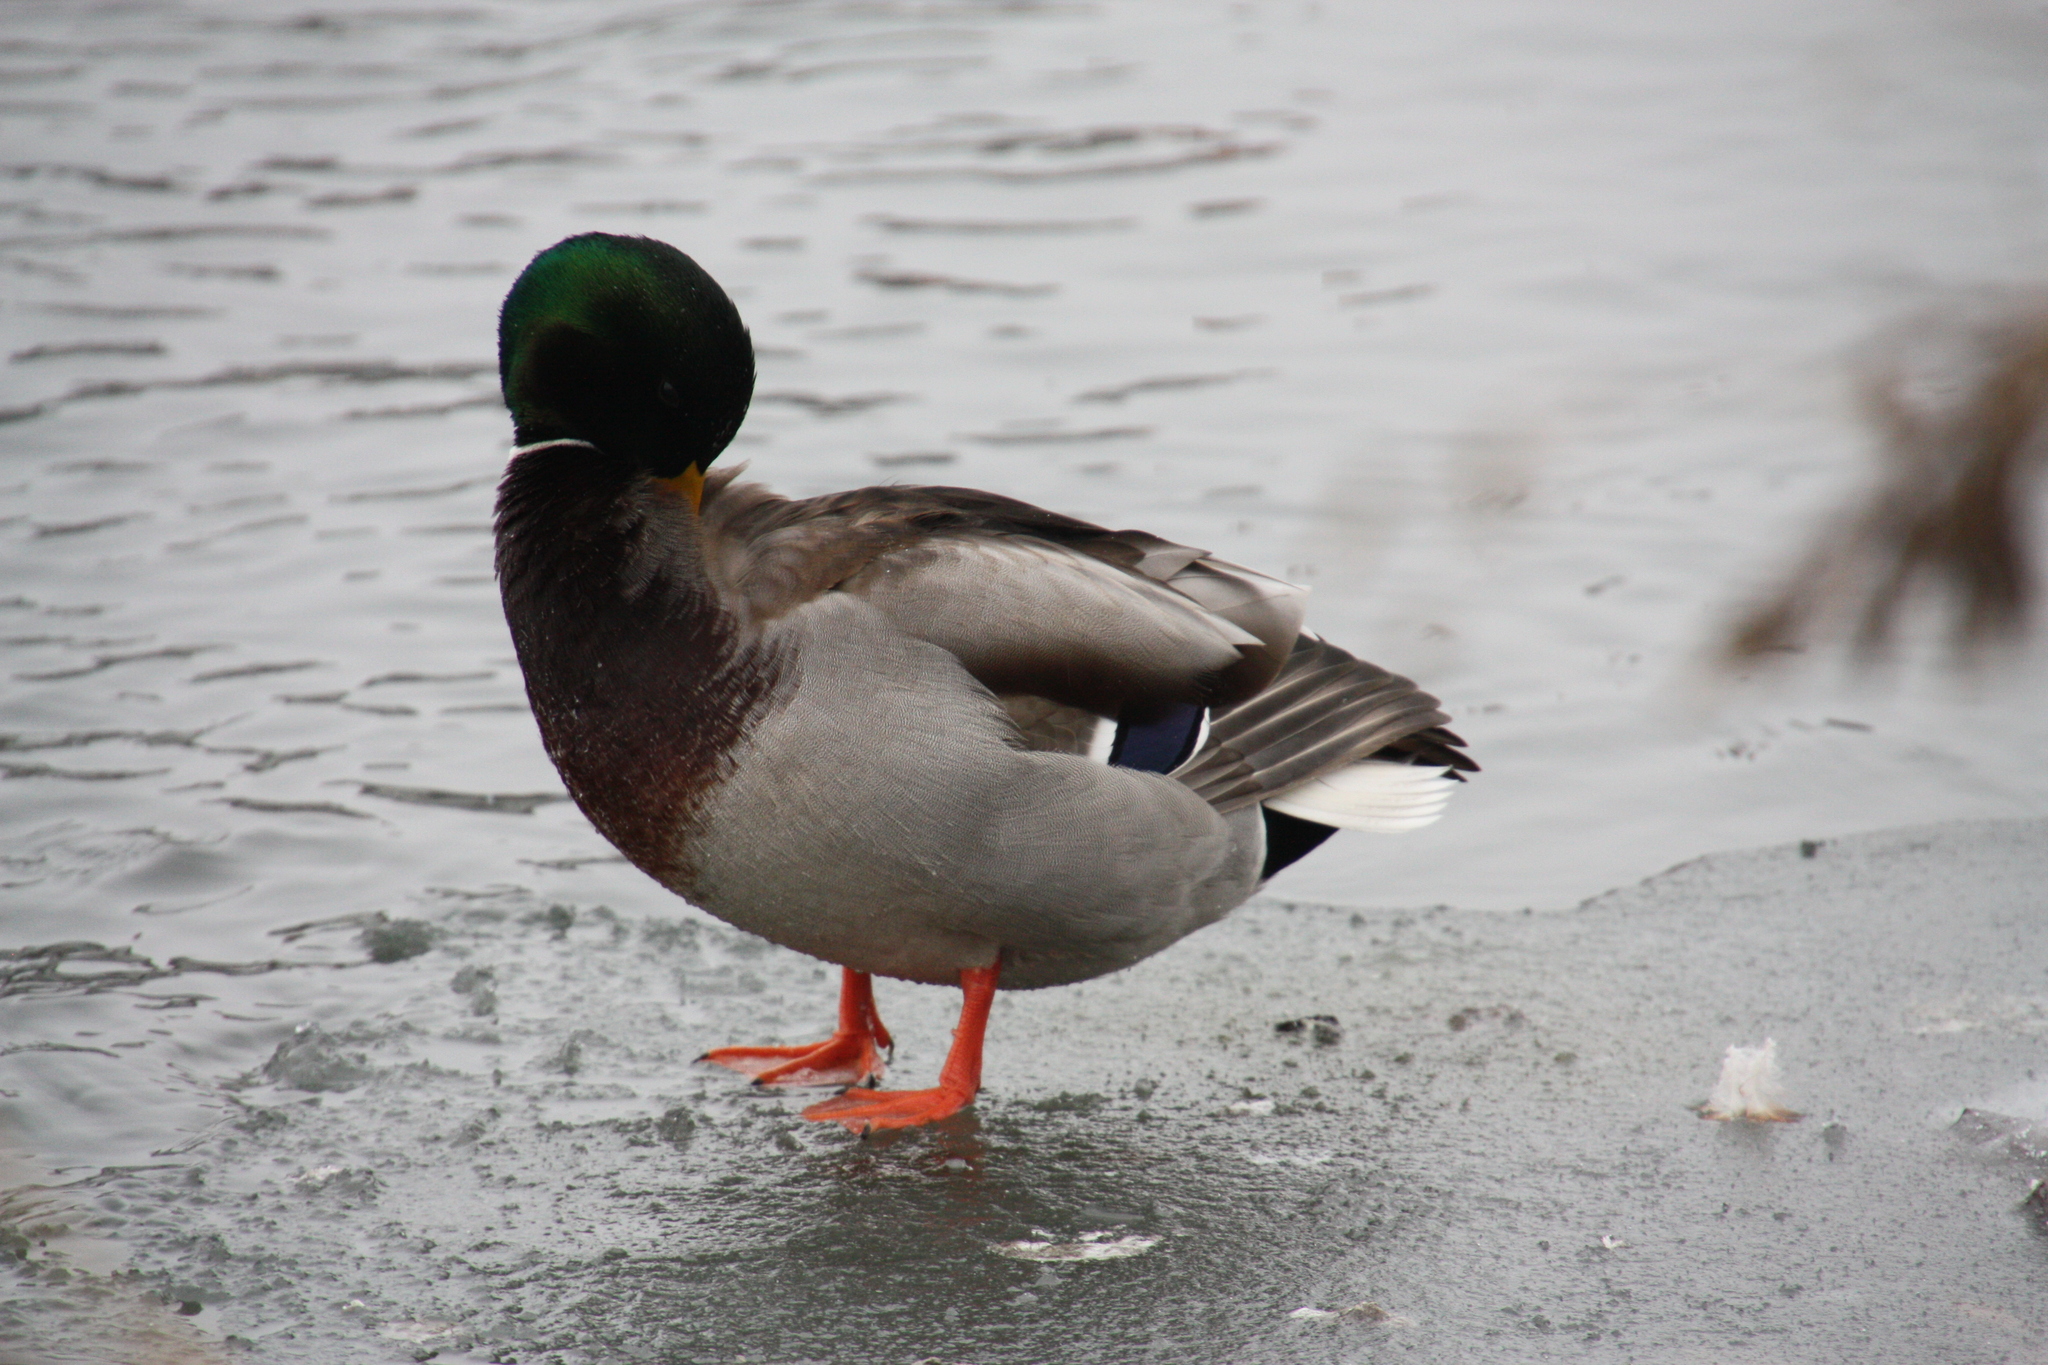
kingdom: Animalia
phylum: Chordata
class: Aves
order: Anseriformes
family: Anatidae
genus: Anas
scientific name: Anas platyrhynchos
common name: Mallard
